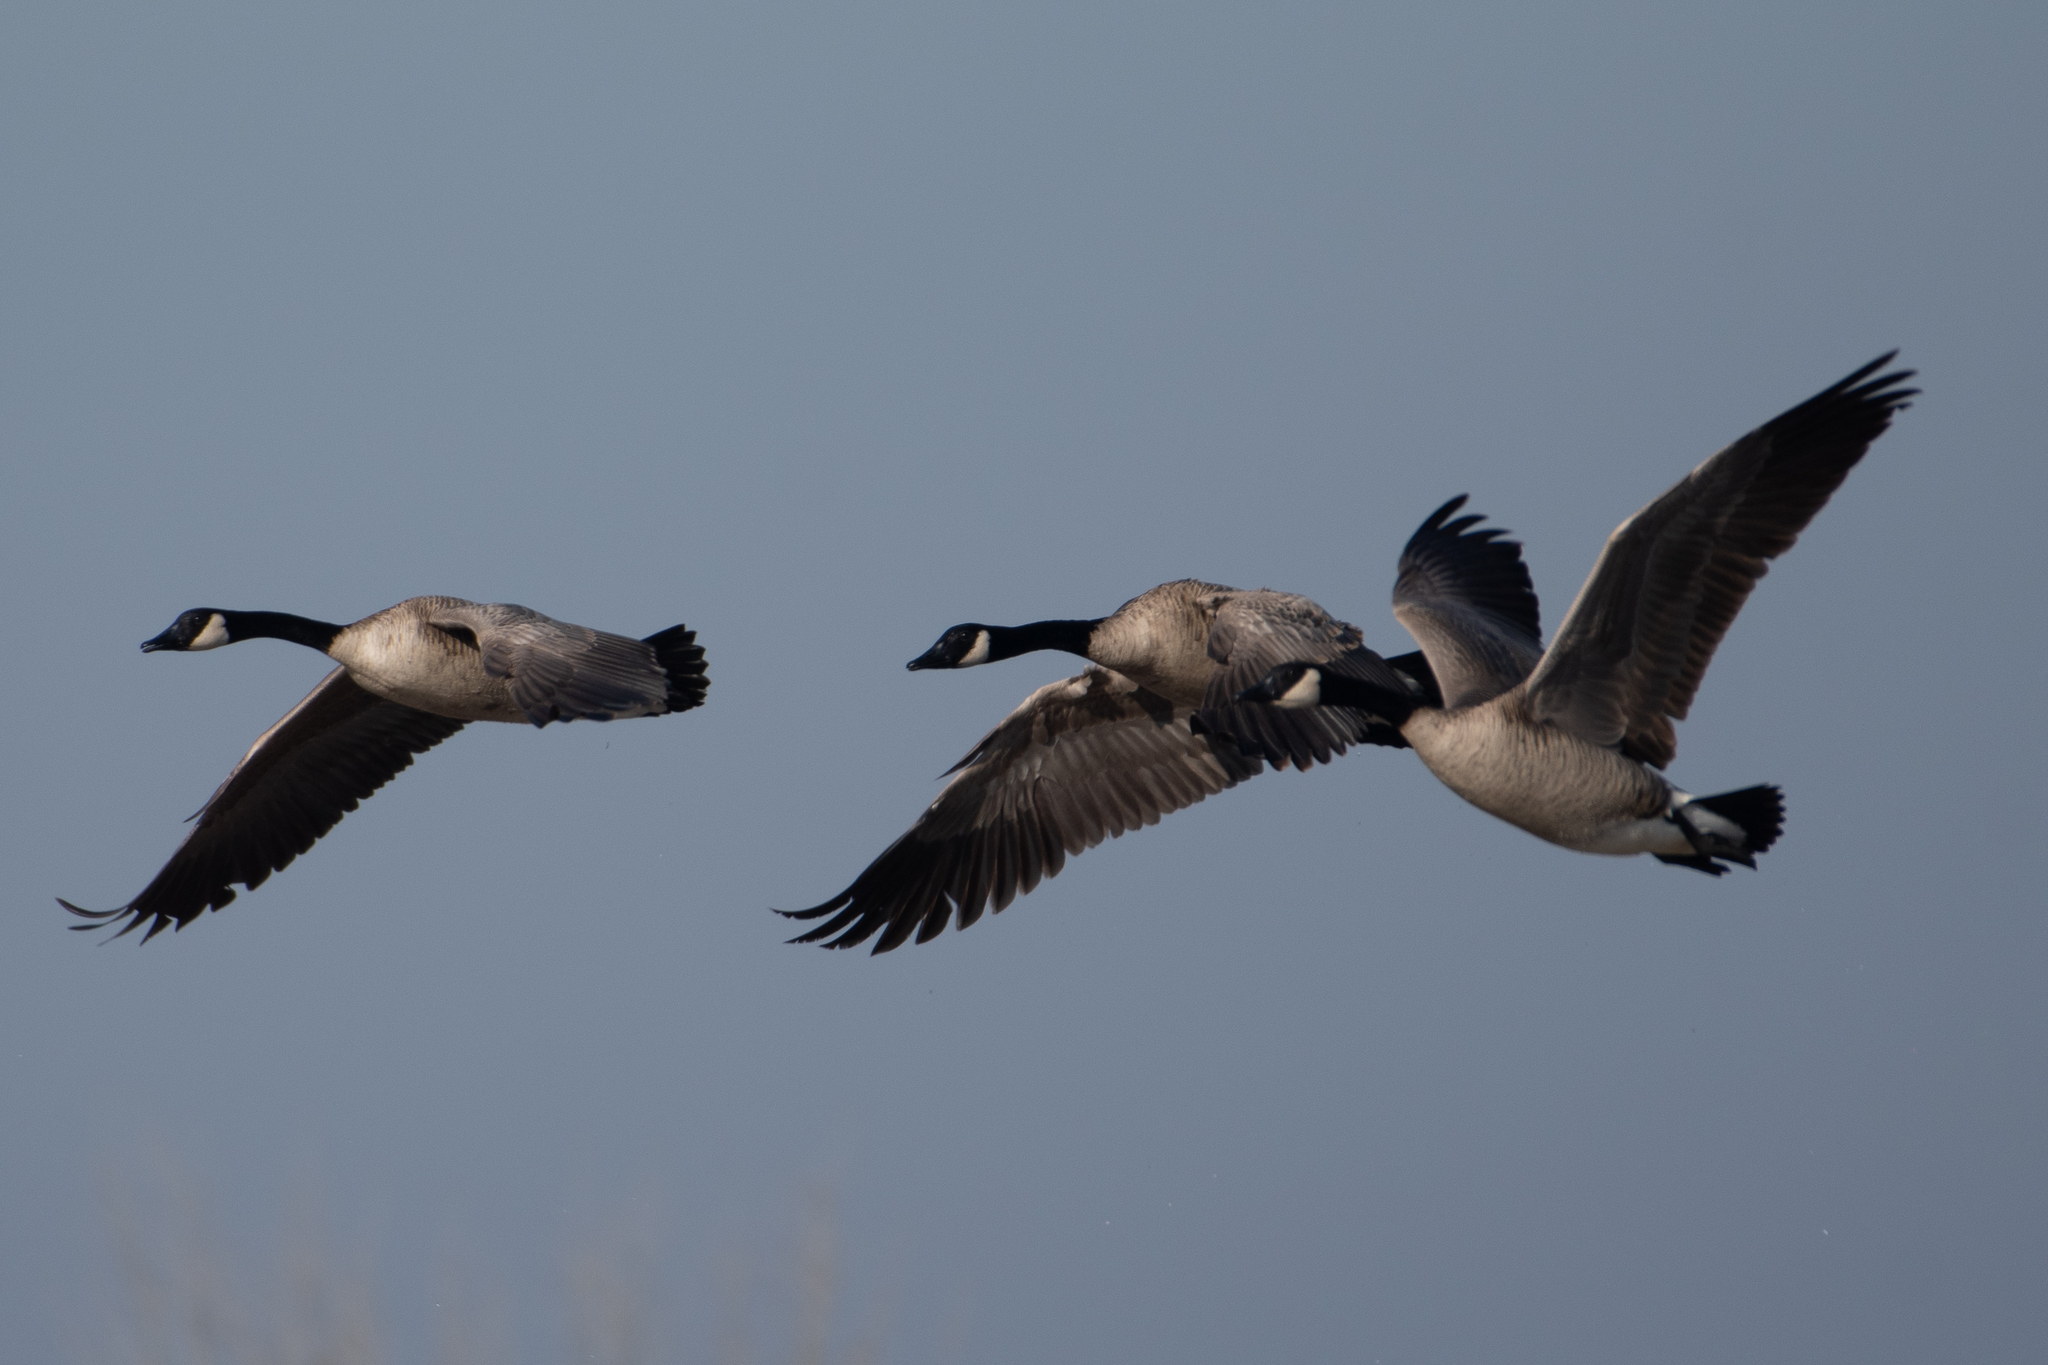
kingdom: Animalia
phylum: Chordata
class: Aves
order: Anseriformes
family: Anatidae
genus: Branta
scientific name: Branta canadensis
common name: Canada goose
